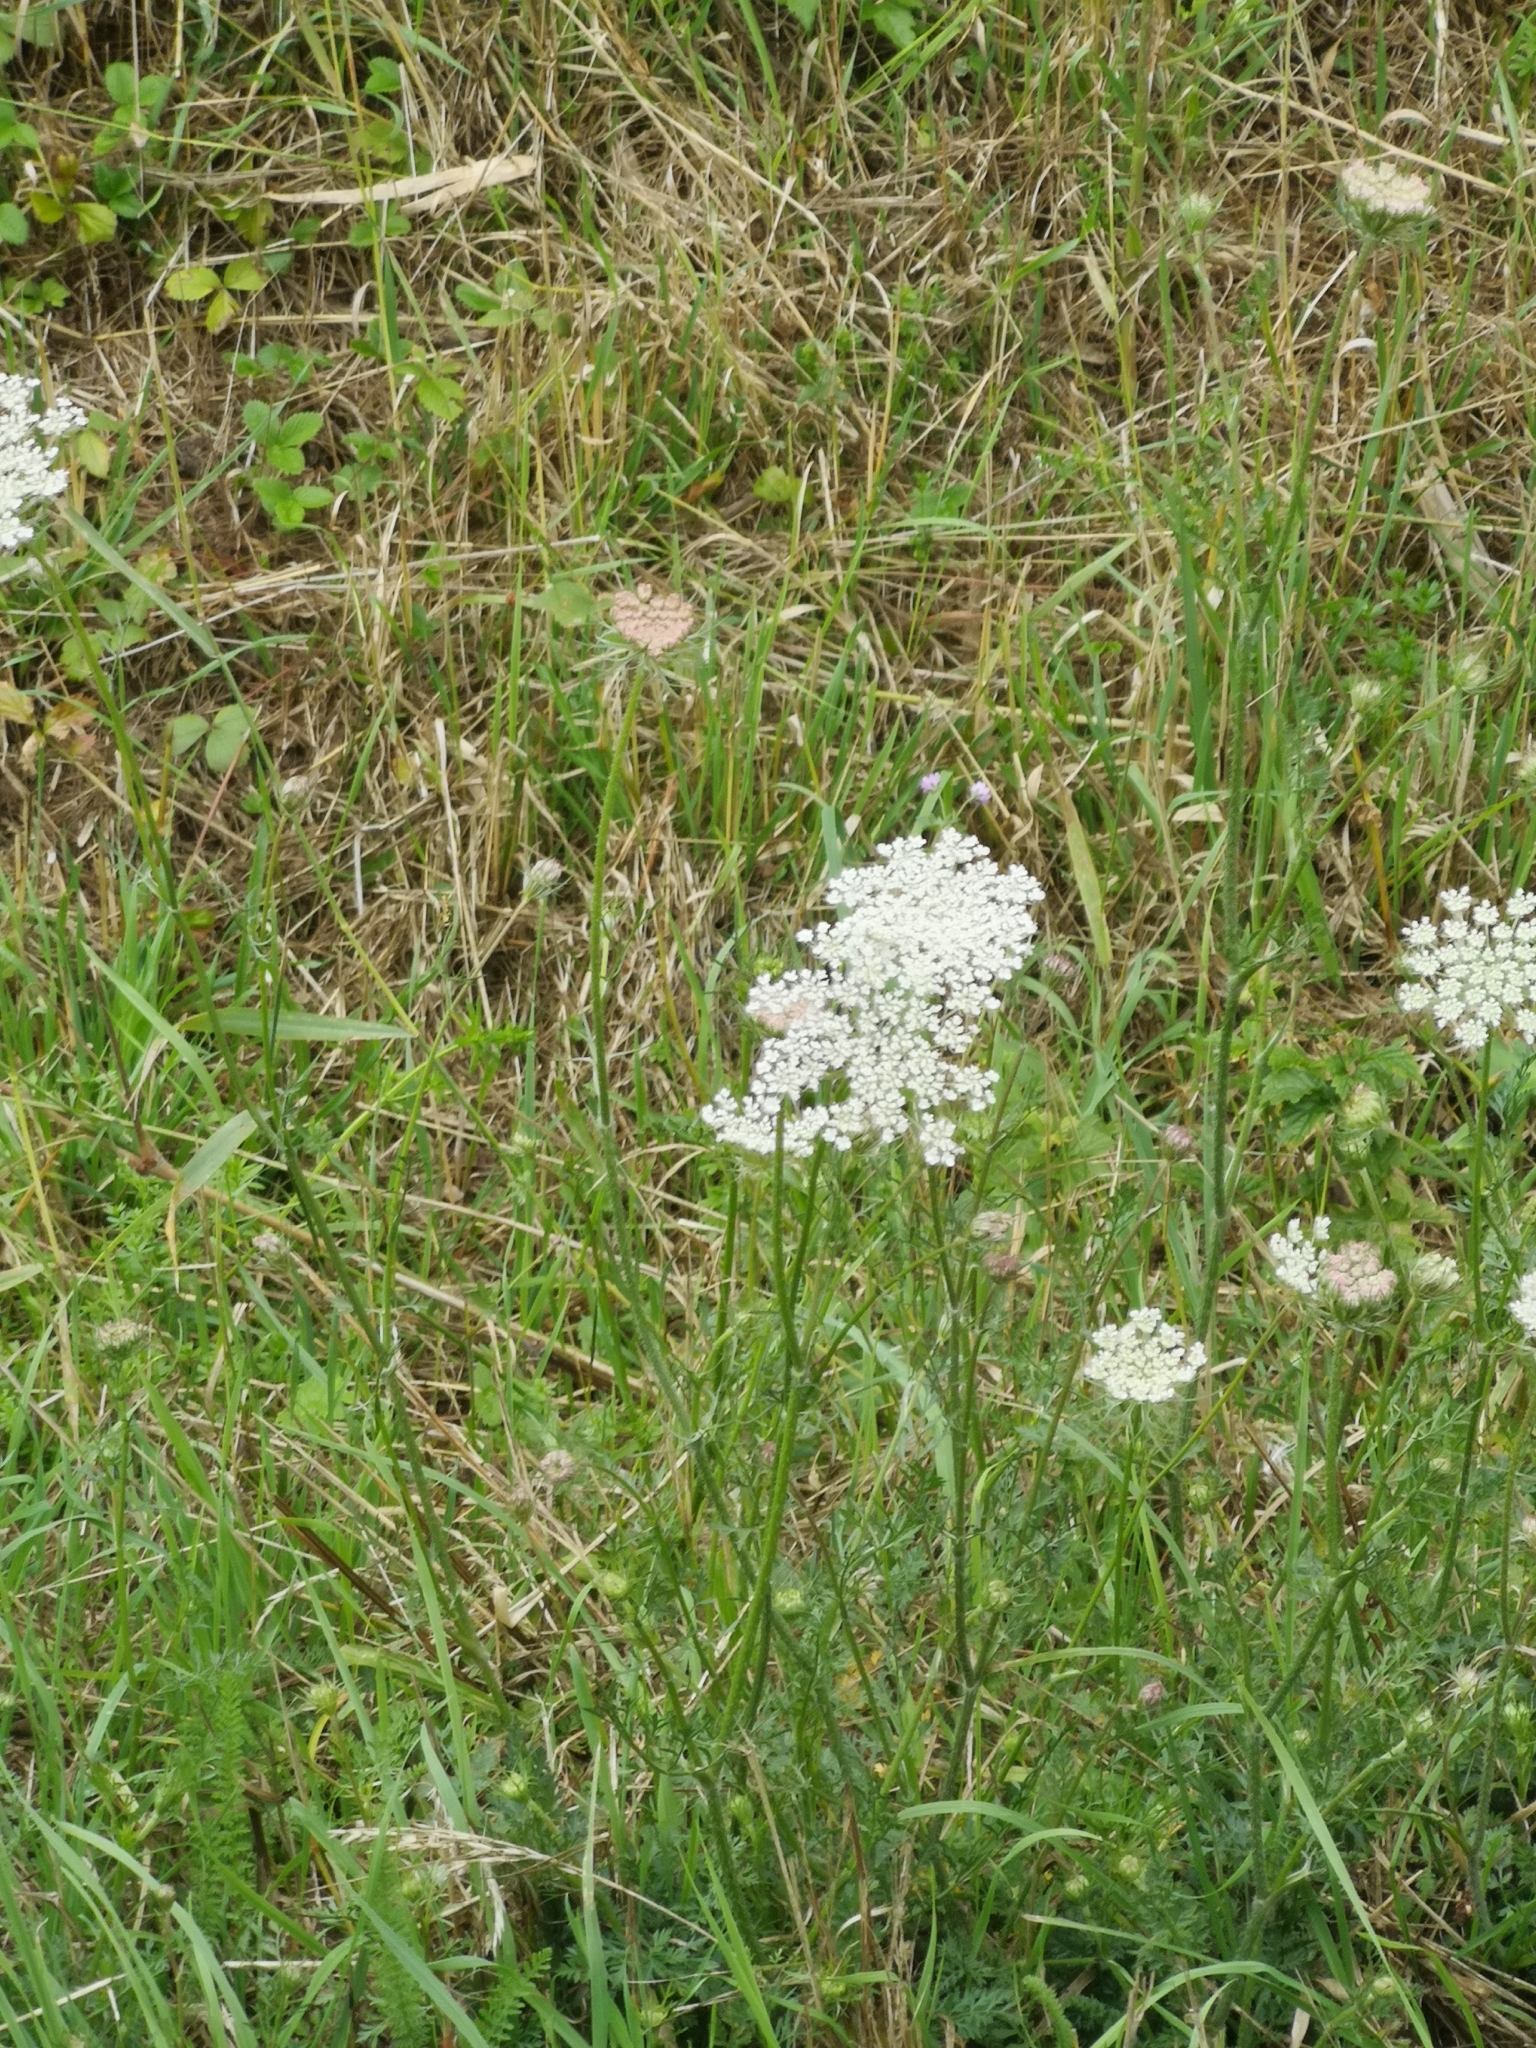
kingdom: Plantae
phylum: Tracheophyta
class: Magnoliopsida
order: Apiales
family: Apiaceae
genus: Daucus
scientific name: Daucus carota
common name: Wild carrot
